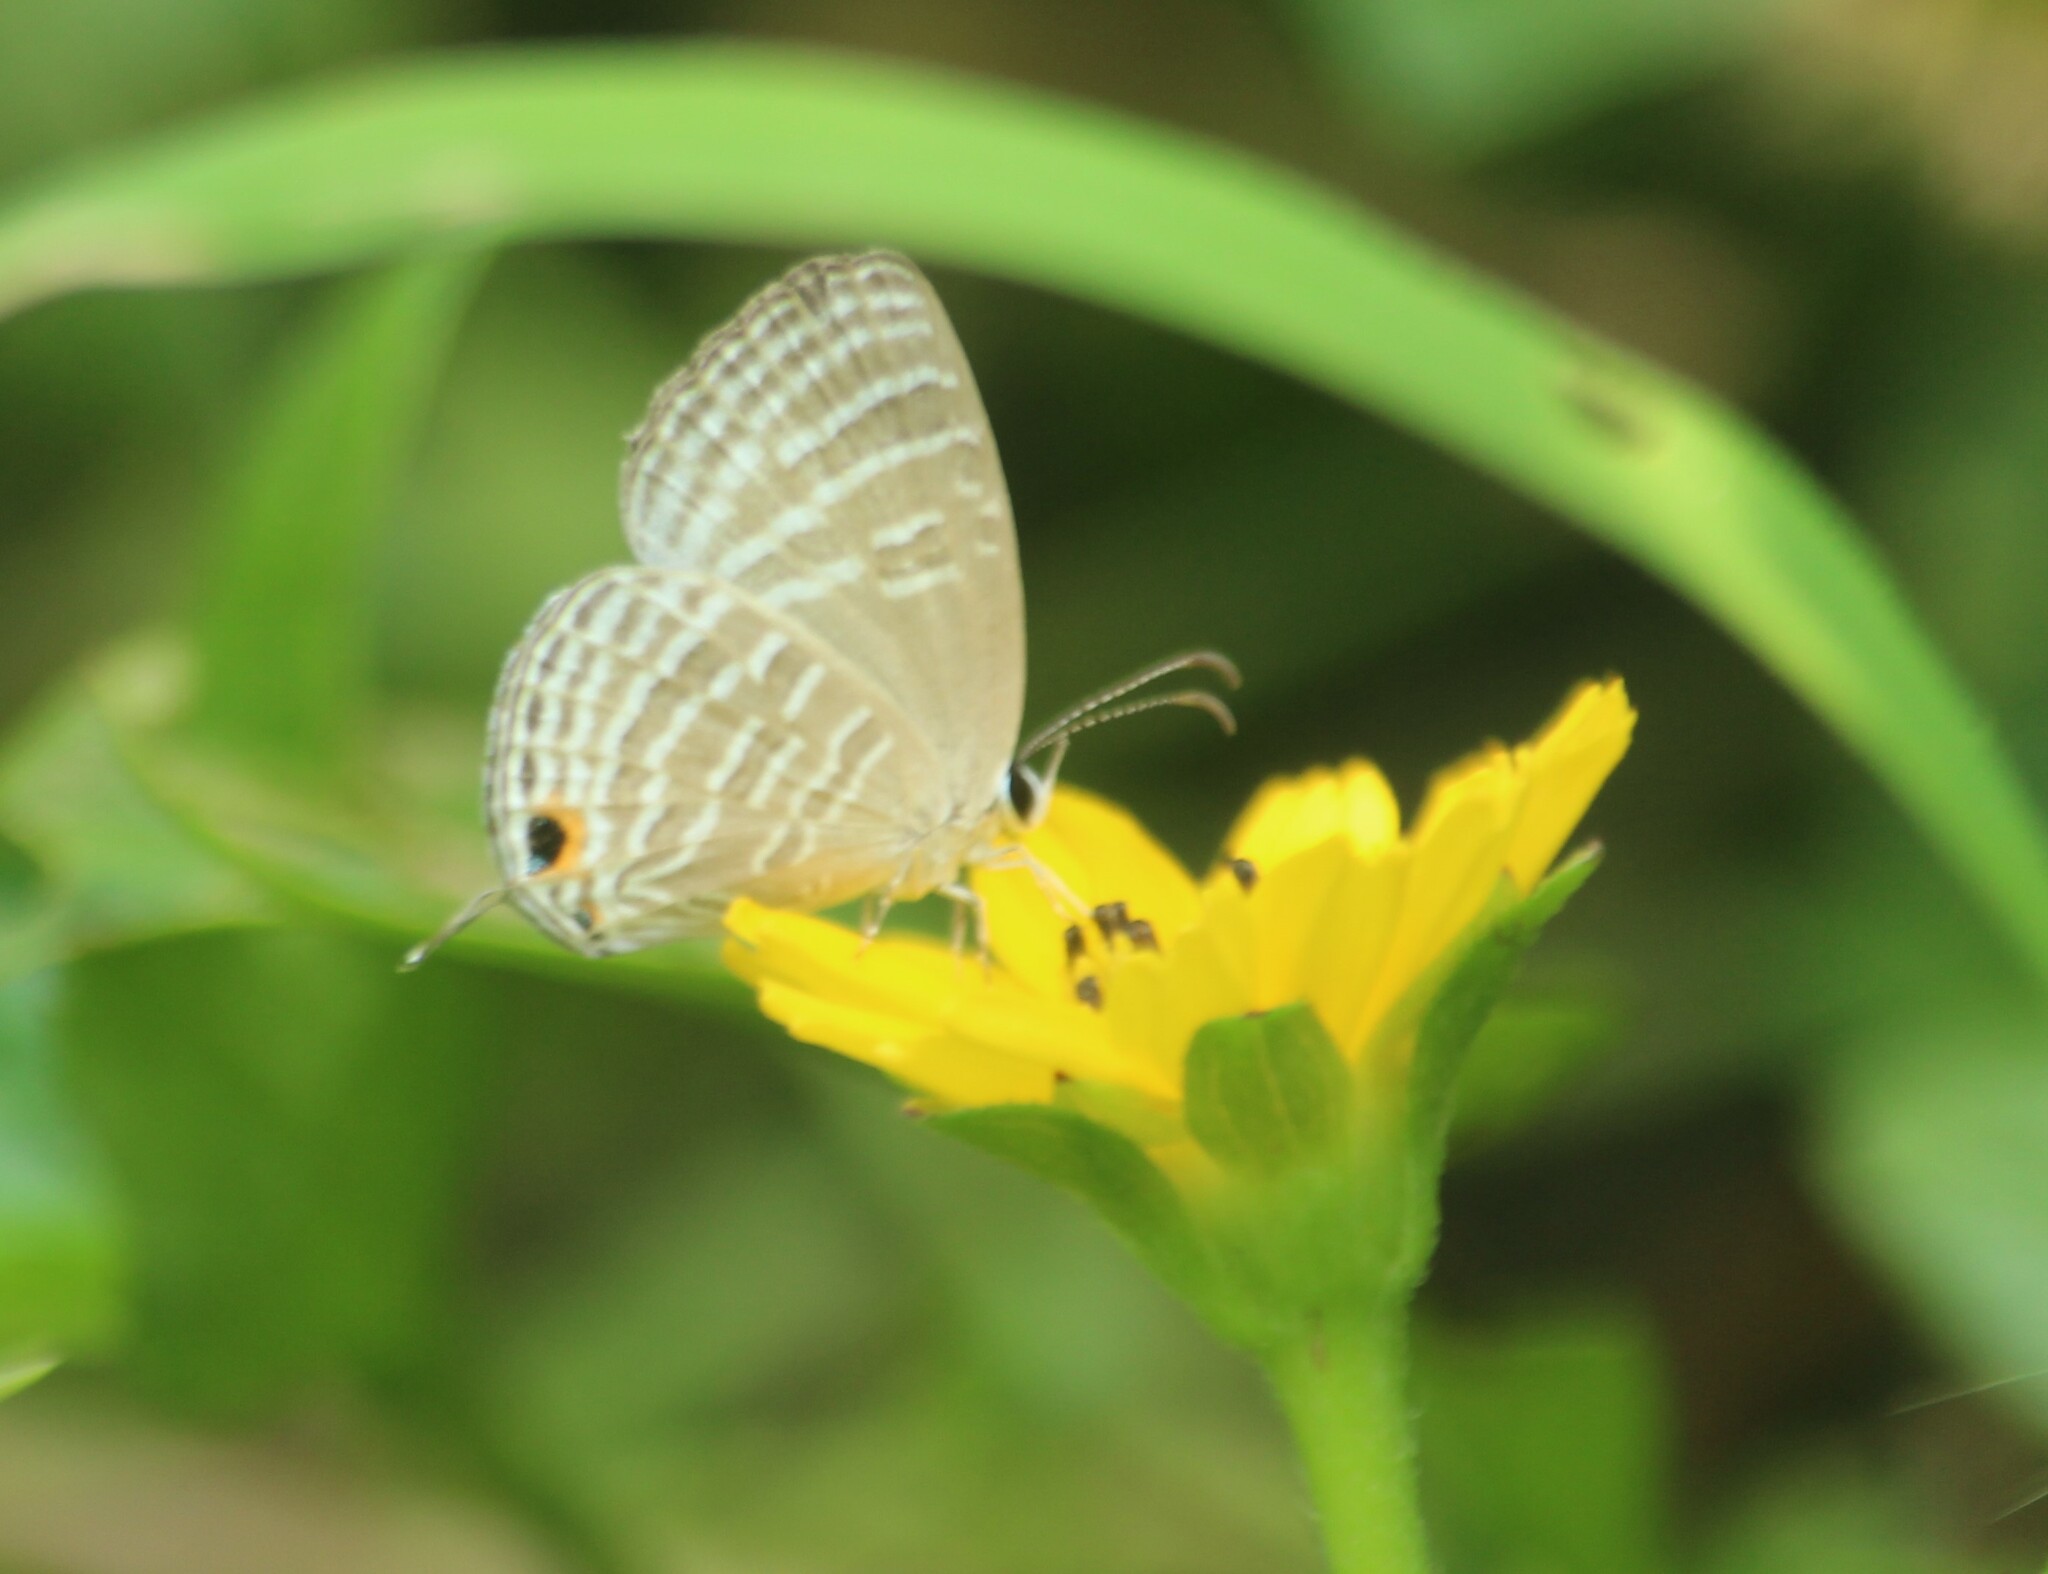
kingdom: Animalia
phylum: Arthropoda
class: Insecta
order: Lepidoptera
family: Lycaenidae
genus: Jamides
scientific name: Jamides celeno
